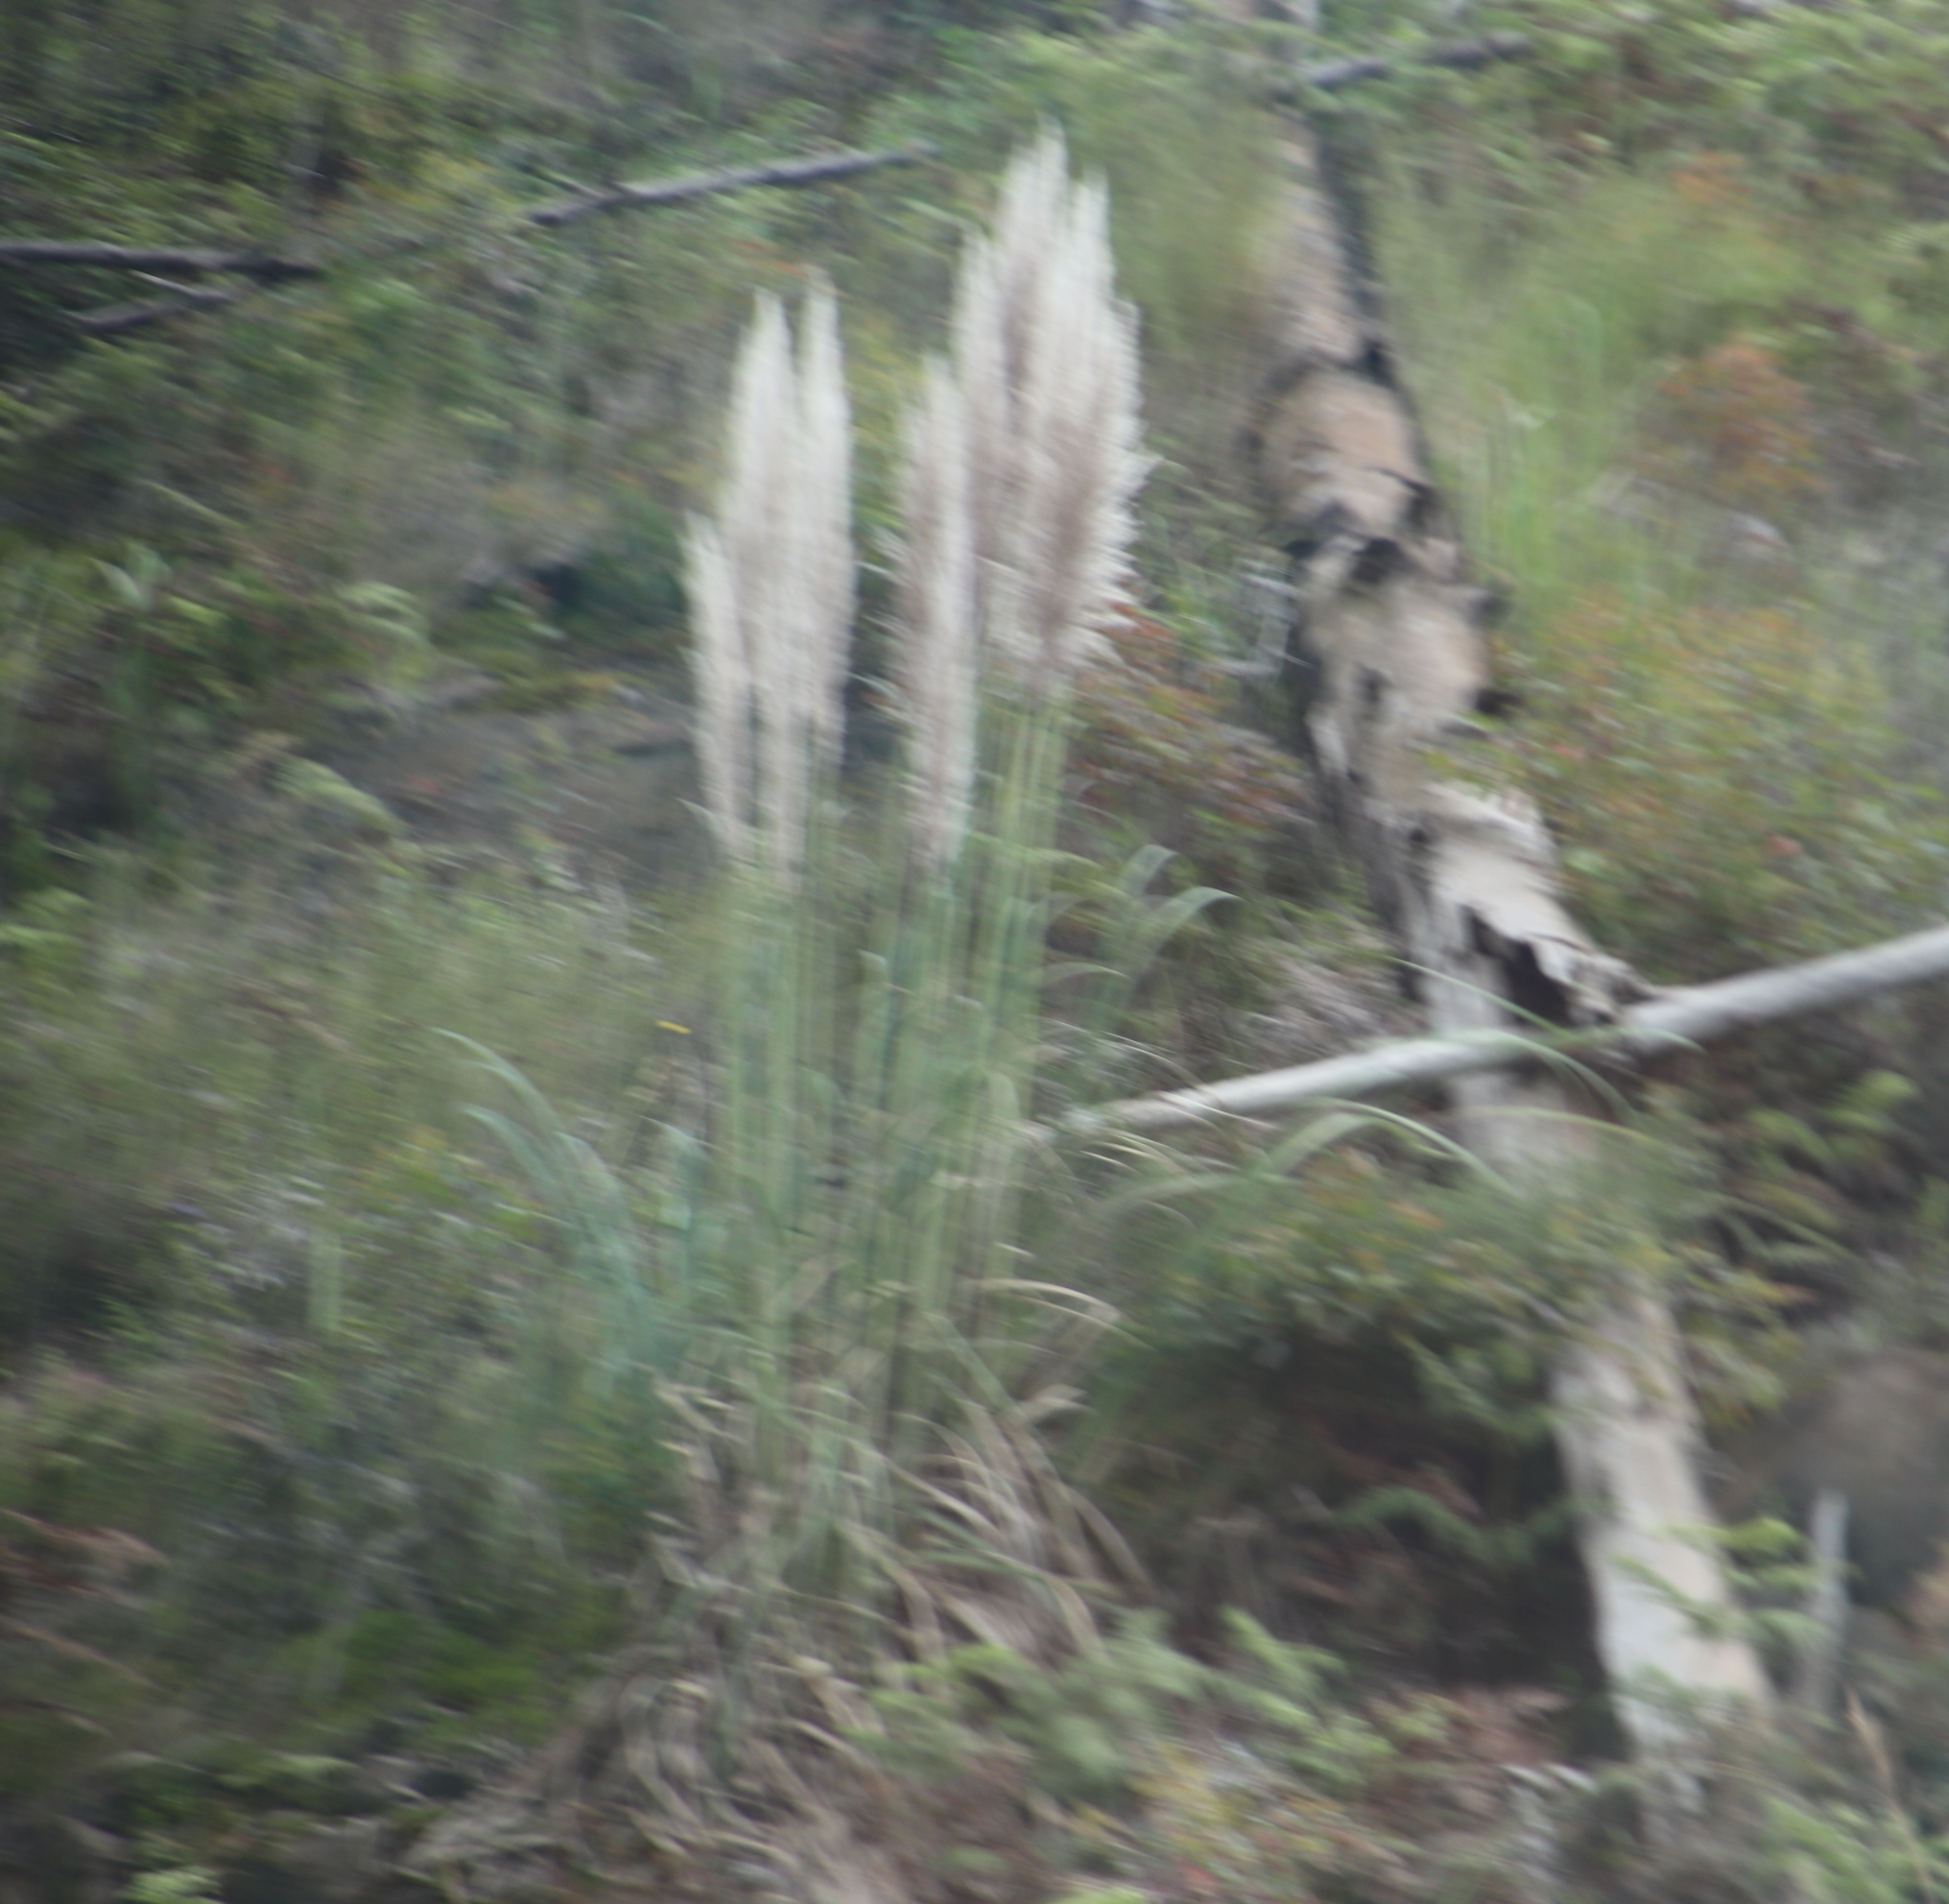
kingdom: Plantae
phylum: Tracheophyta
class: Liliopsida
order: Poales
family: Poaceae
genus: Cortaderia
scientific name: Cortaderia selloana
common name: Uruguayan pampas grass
